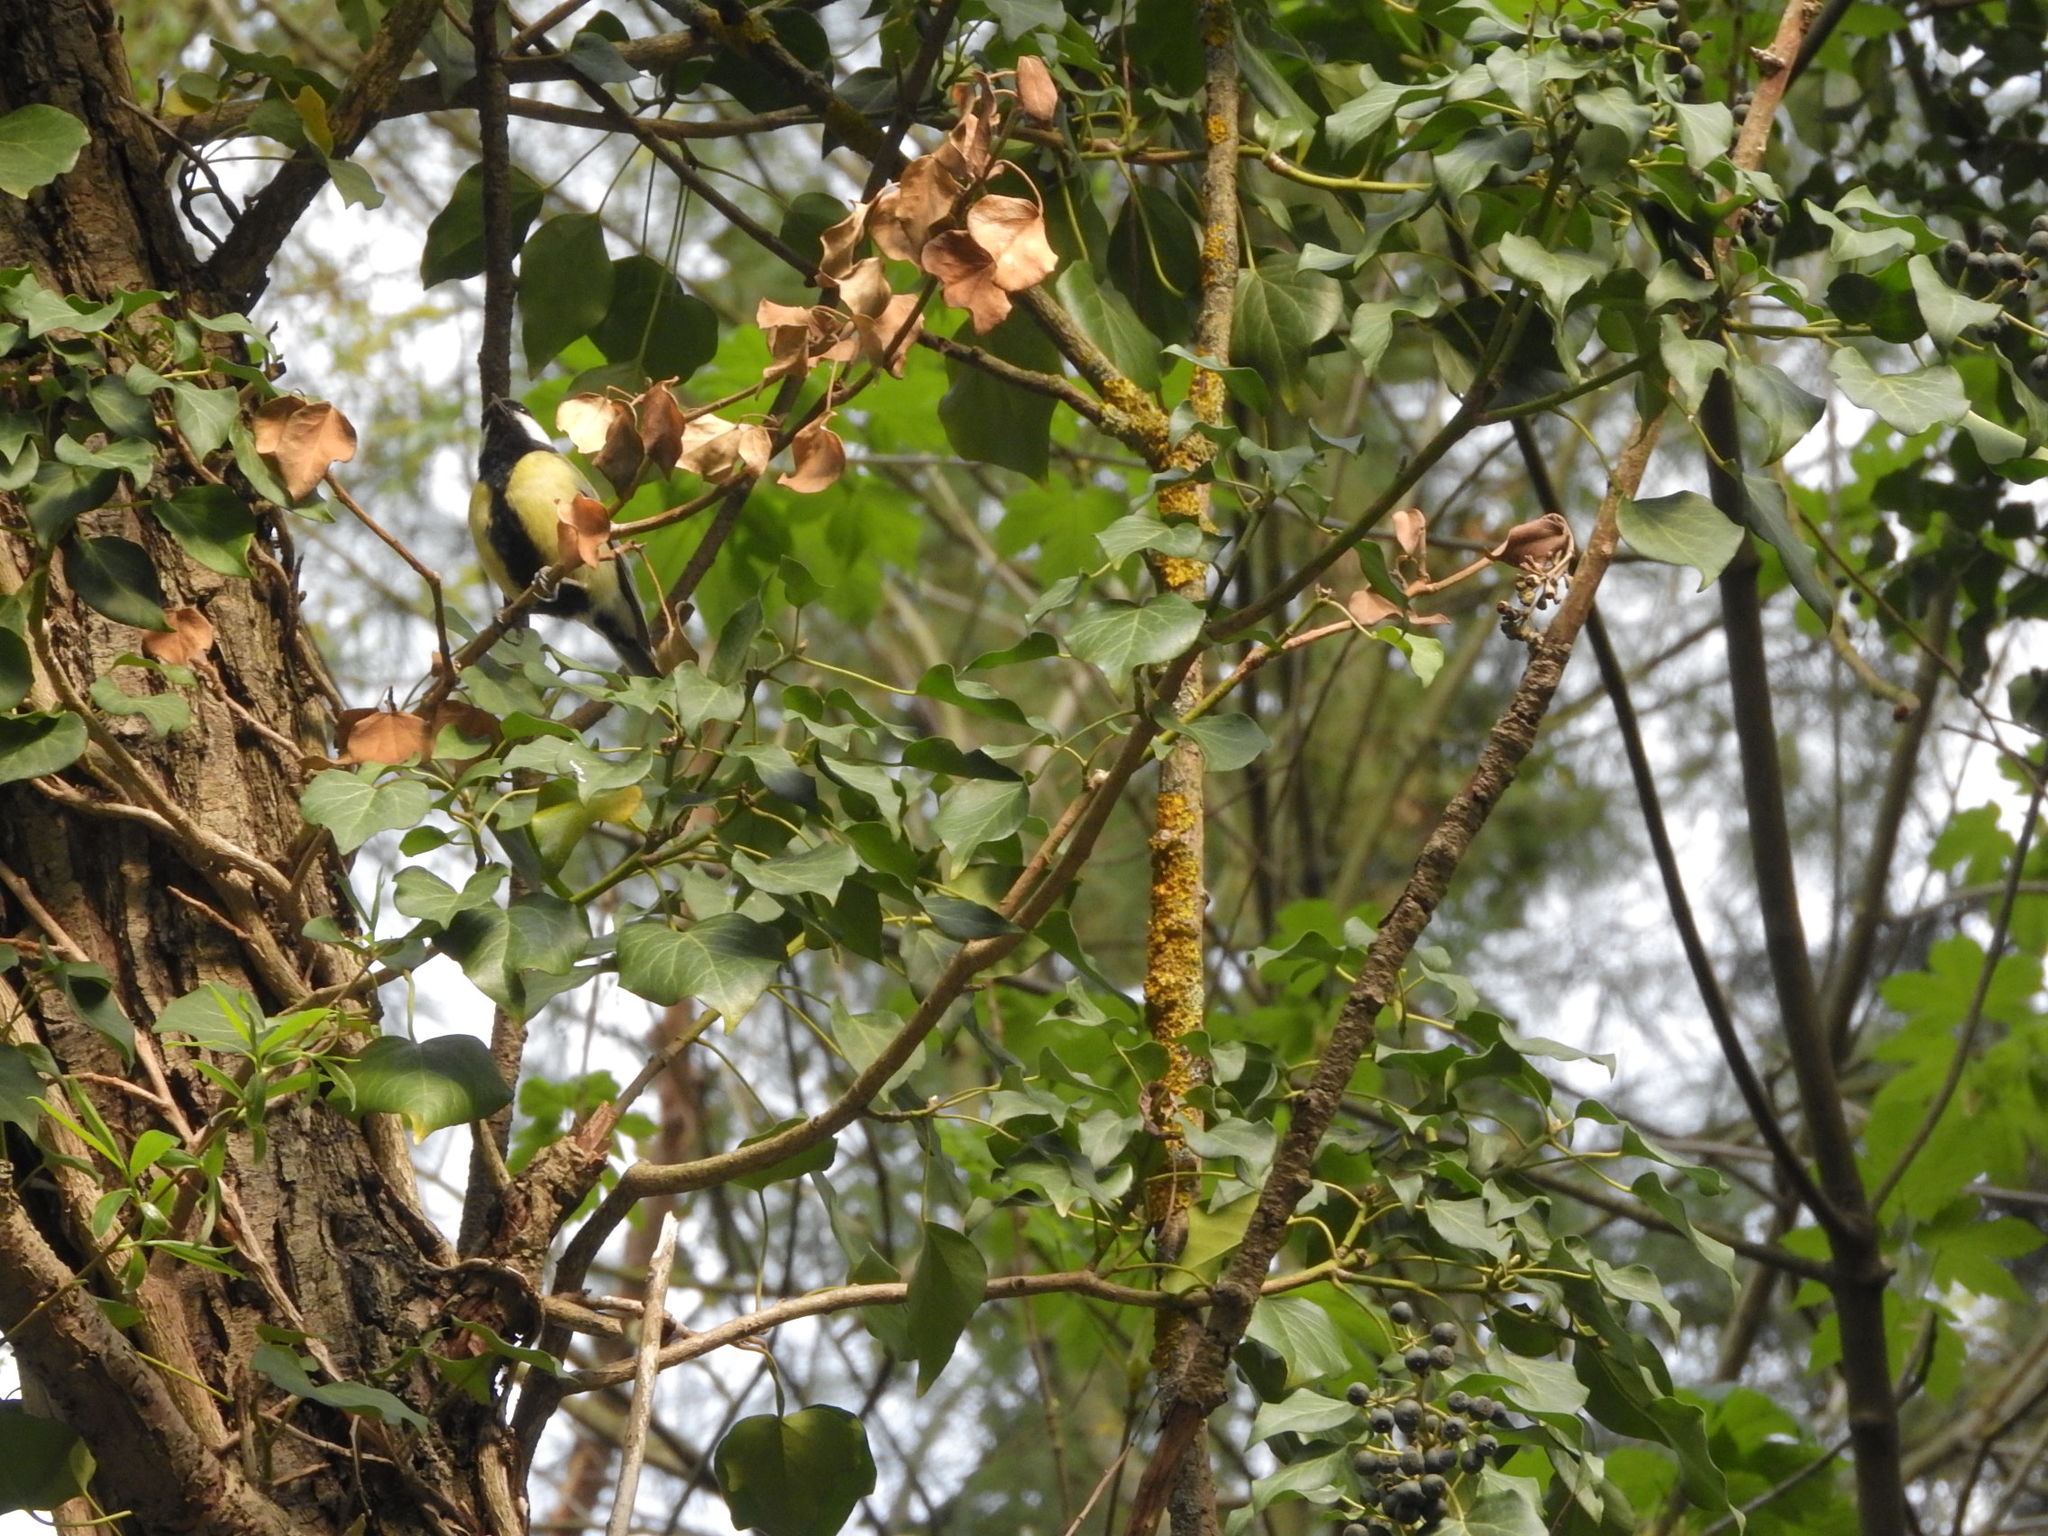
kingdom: Animalia
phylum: Chordata
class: Aves
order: Passeriformes
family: Paridae
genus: Parus
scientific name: Parus major
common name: Great tit
